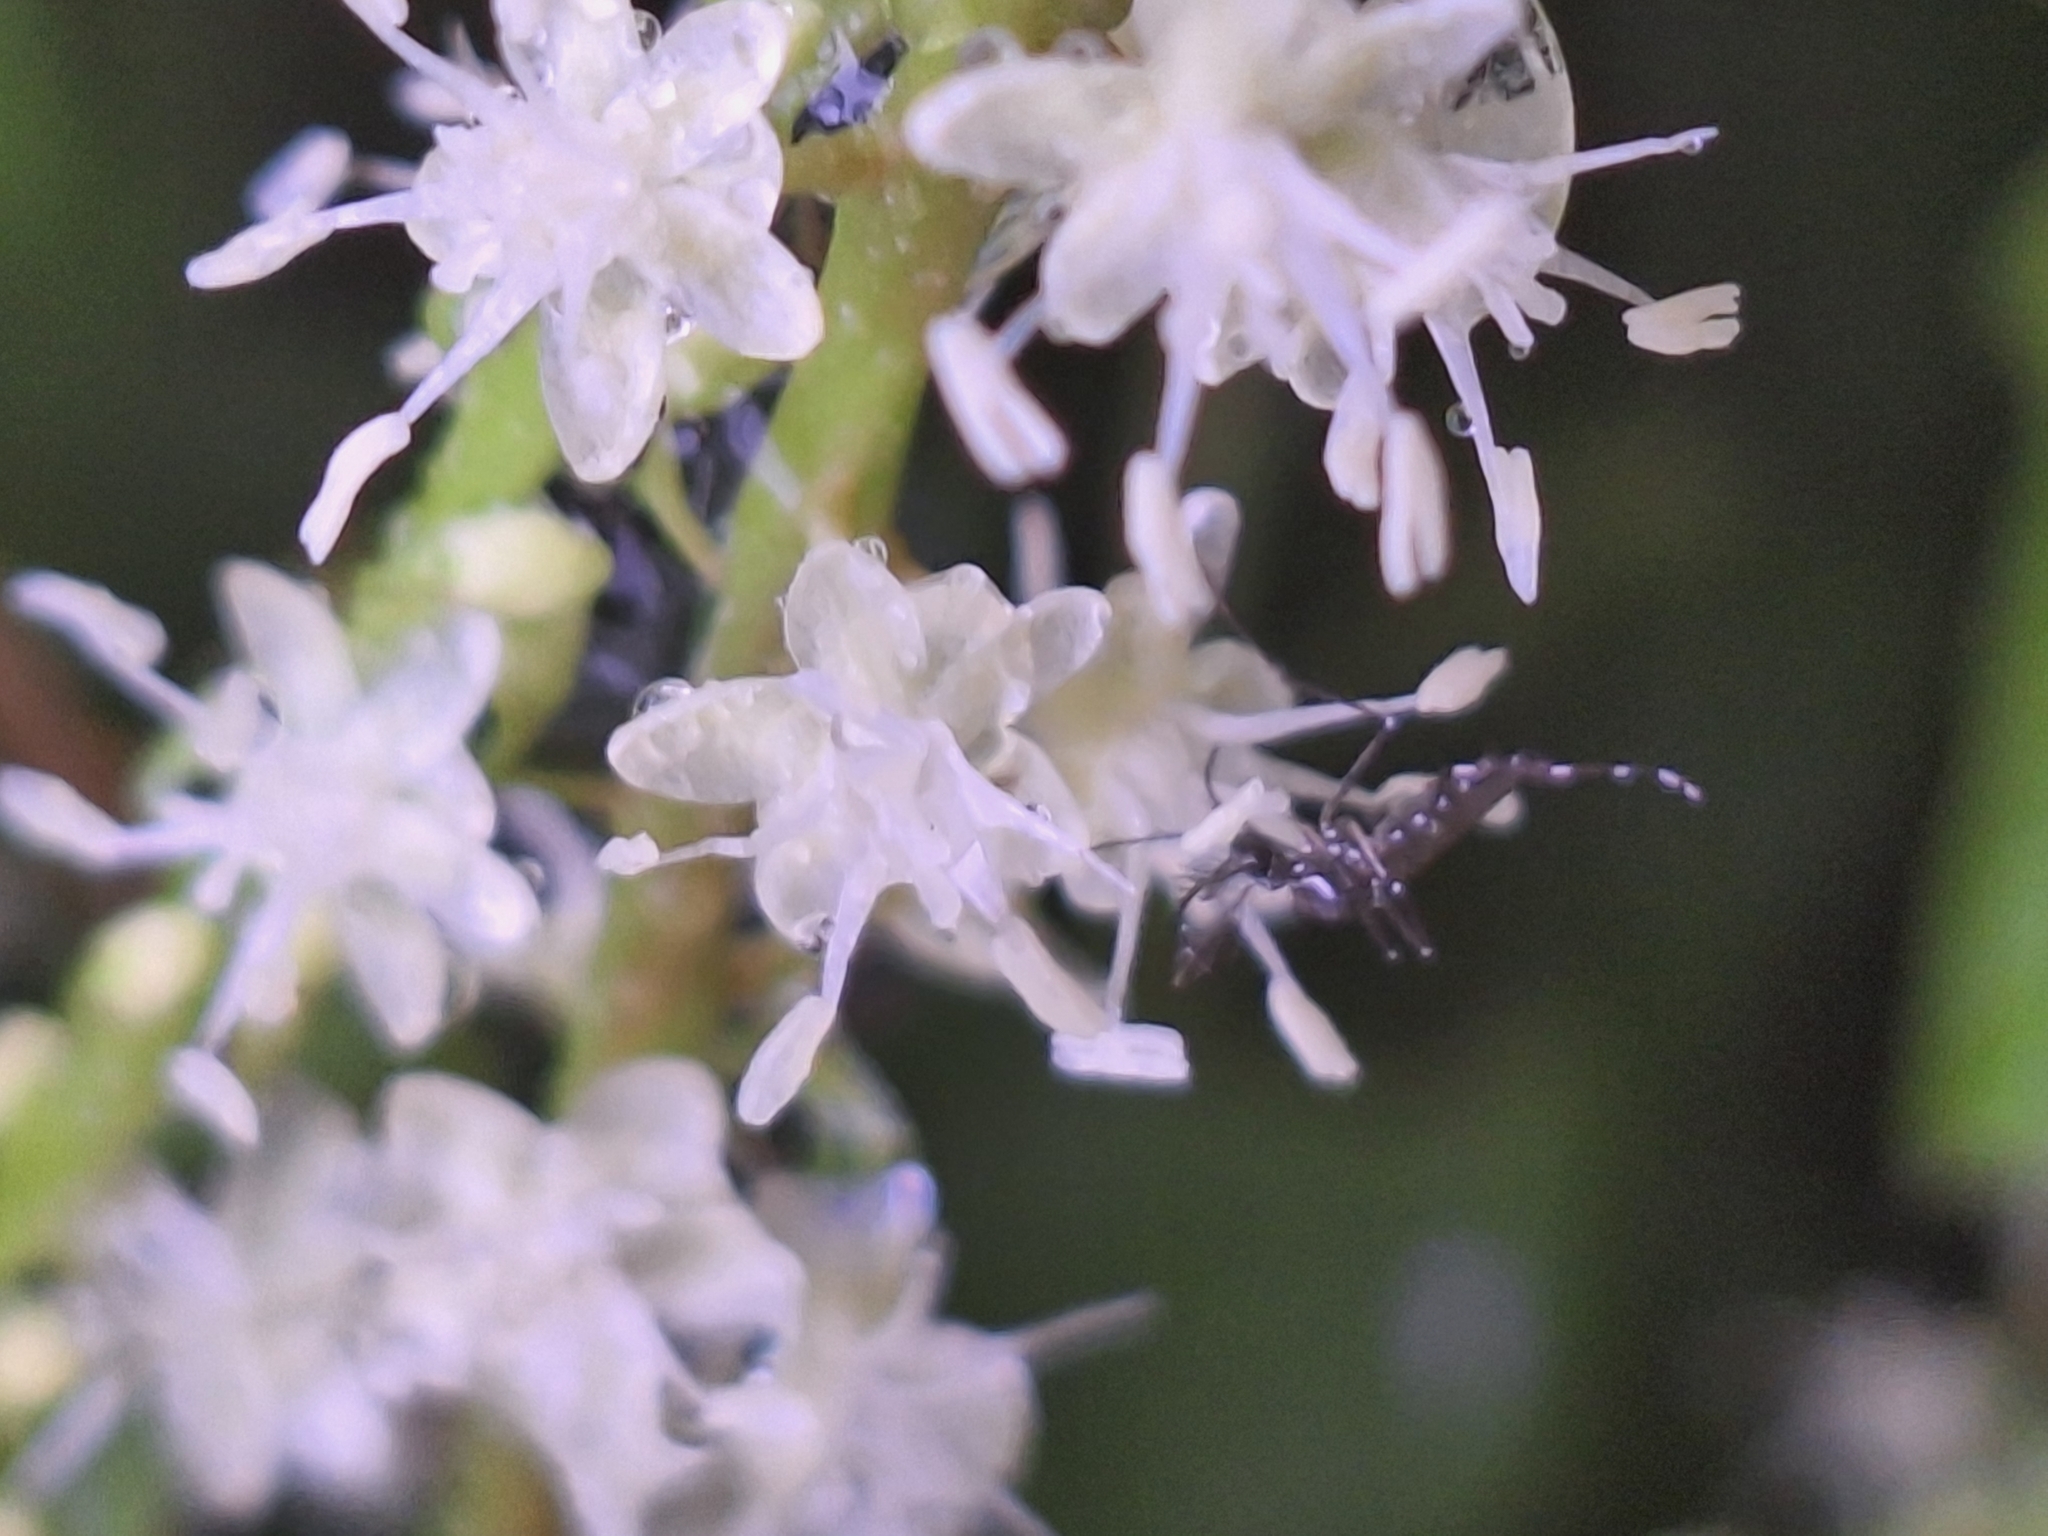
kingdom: Animalia
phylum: Arthropoda
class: Insecta
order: Diptera
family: Culicidae
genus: Aedes
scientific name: Aedes aegypti
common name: Yellow fever mosquito
